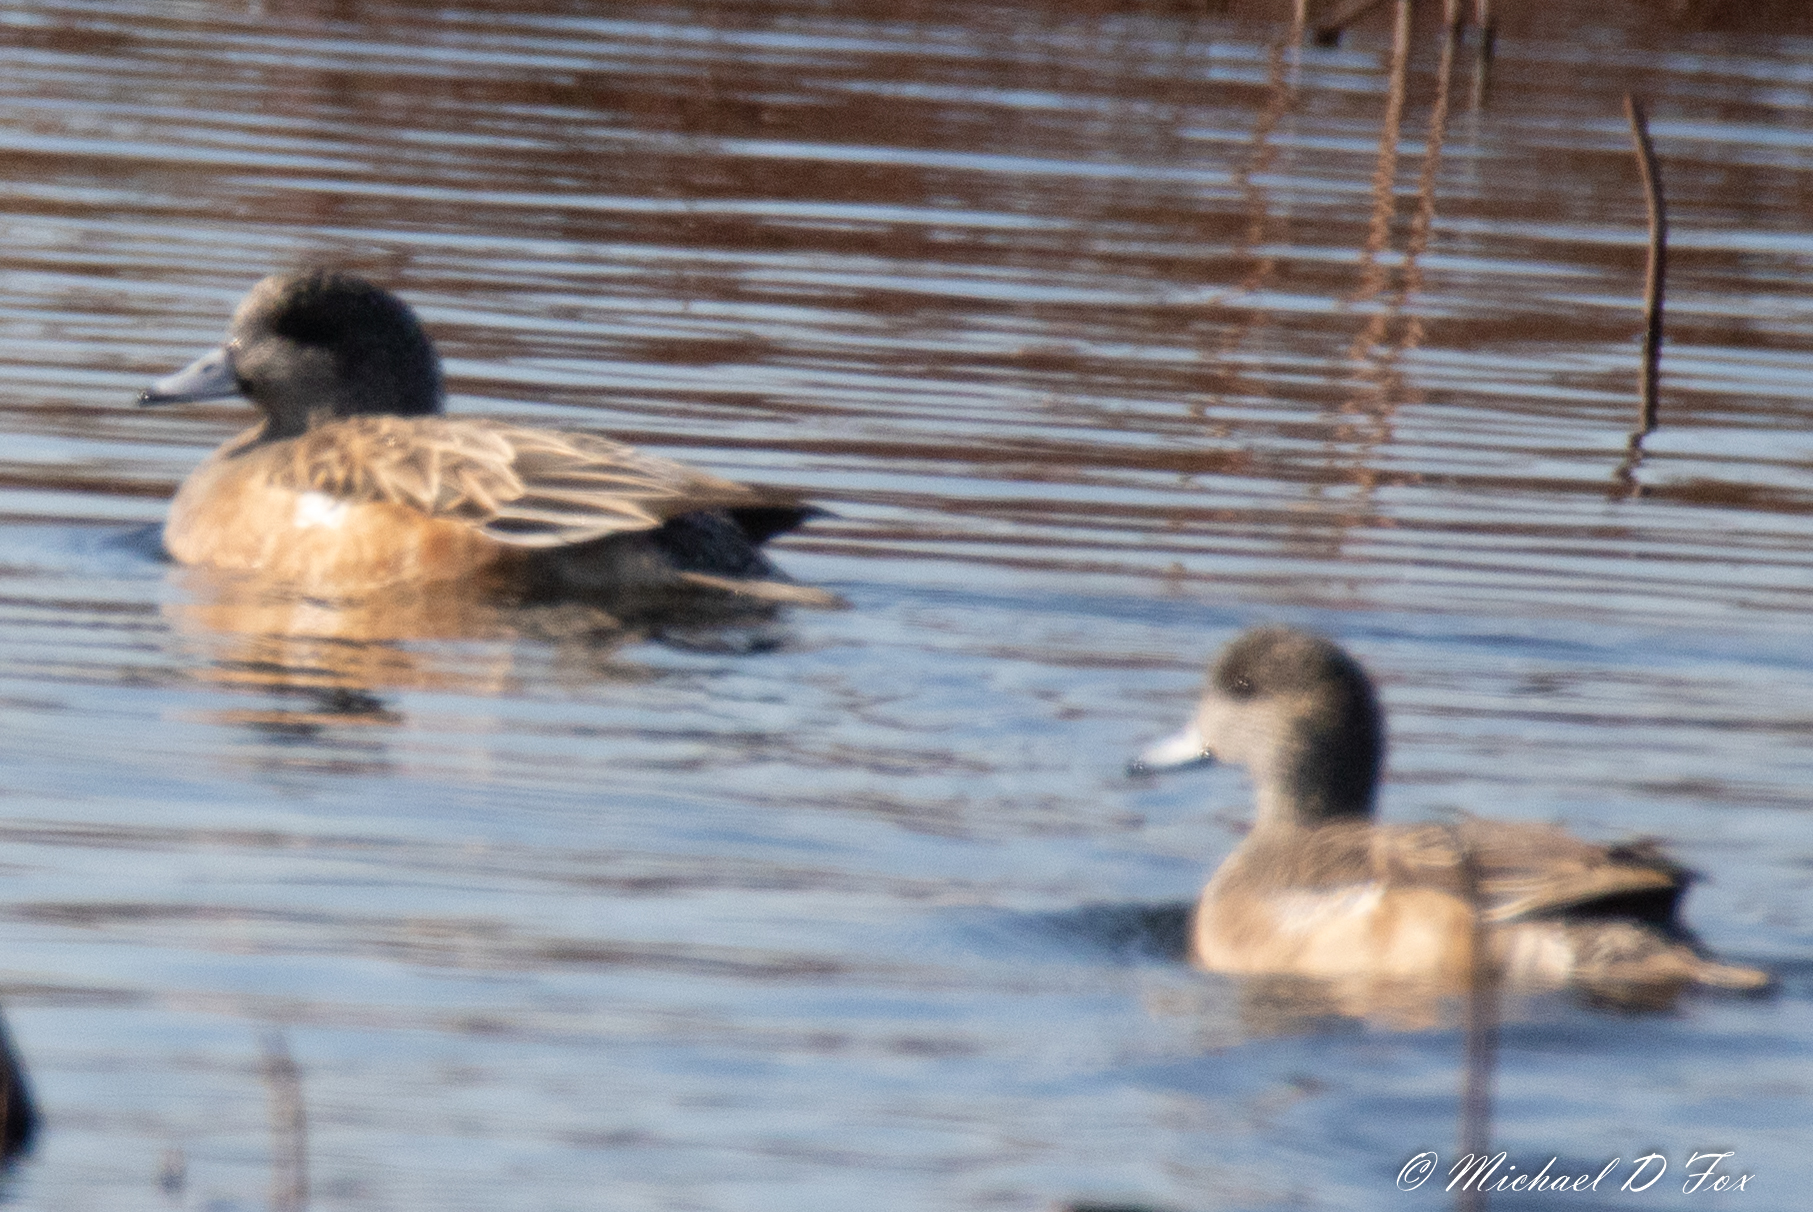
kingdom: Animalia
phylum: Chordata
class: Aves
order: Anseriformes
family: Anatidae
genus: Mareca
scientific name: Mareca americana
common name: American wigeon
